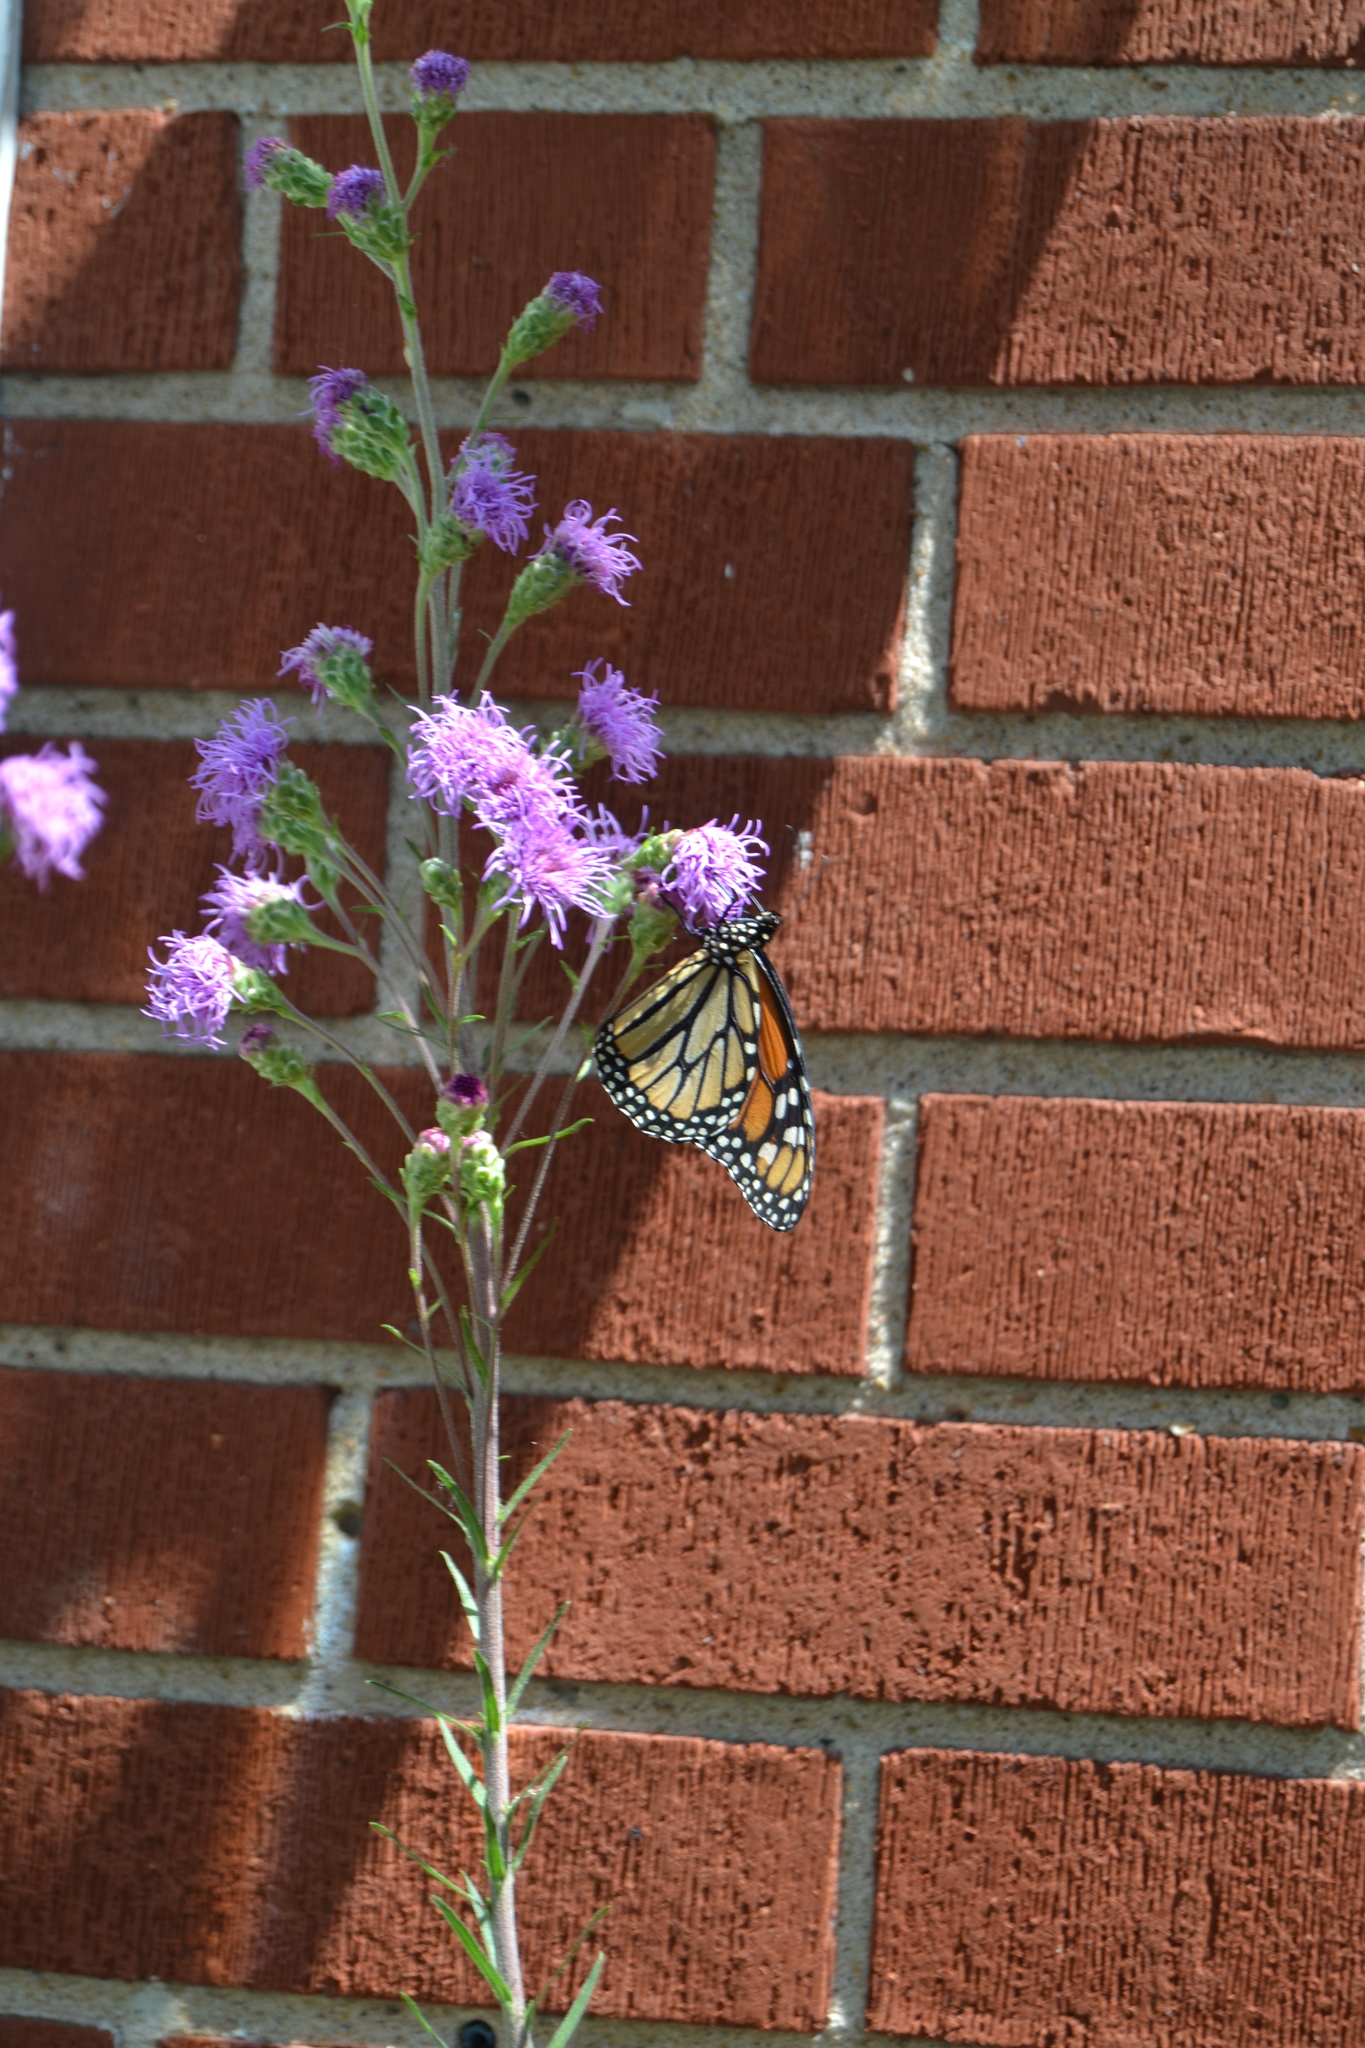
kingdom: Animalia
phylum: Arthropoda
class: Insecta
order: Lepidoptera
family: Nymphalidae
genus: Danaus
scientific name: Danaus plexippus
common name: Monarch
